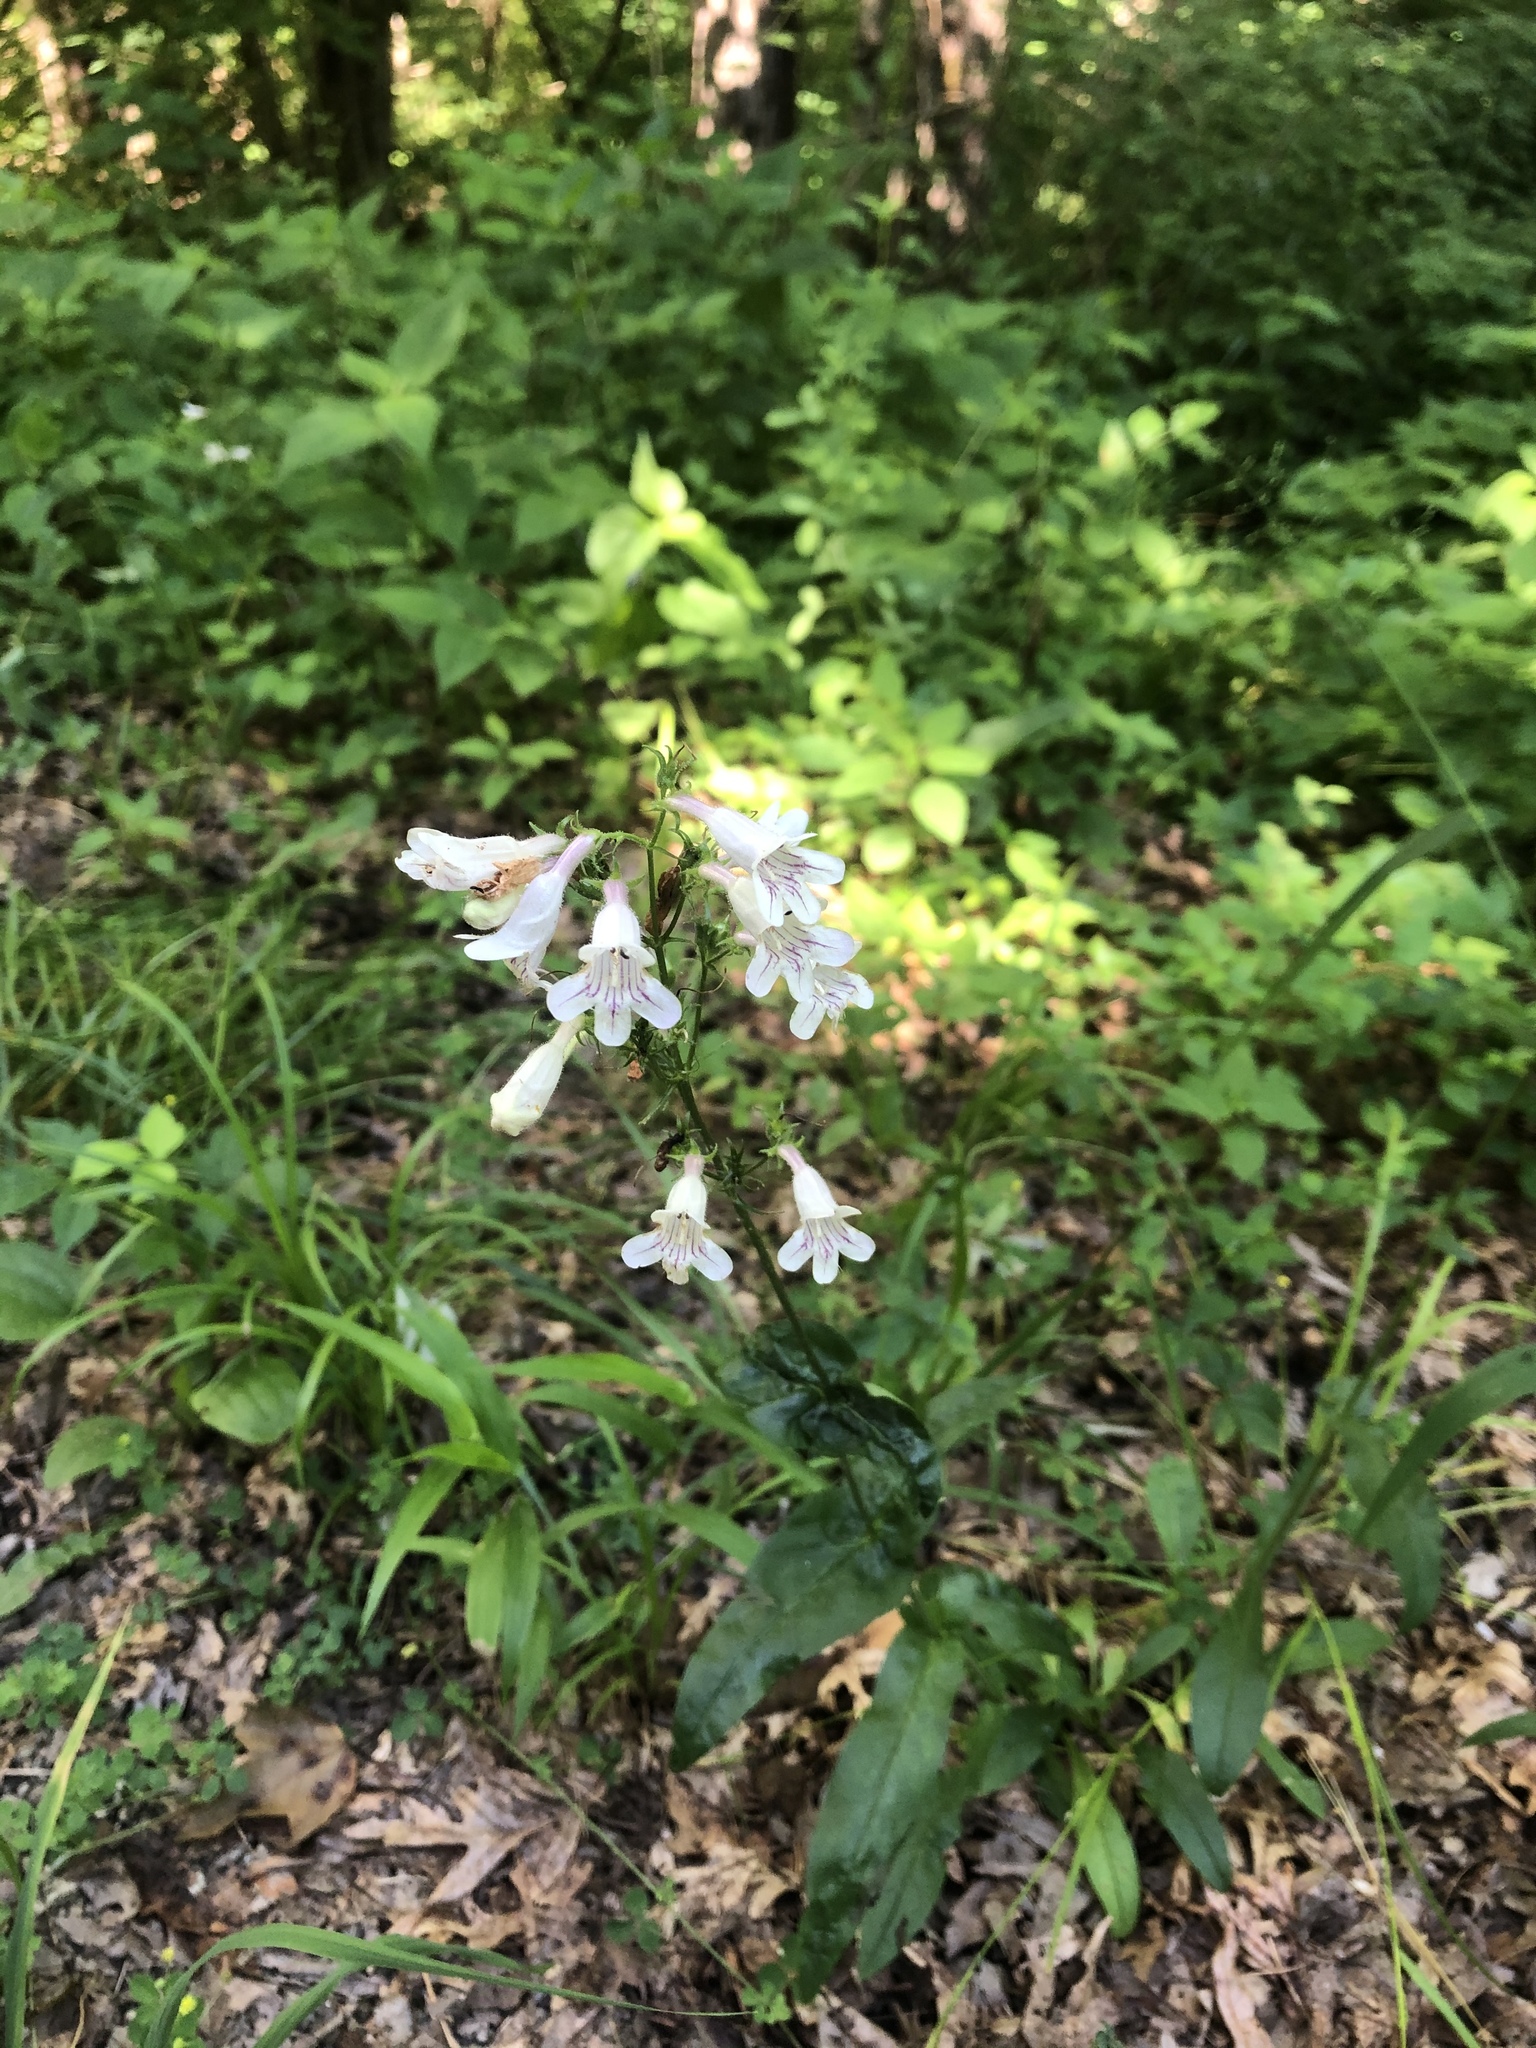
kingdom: Plantae
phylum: Tracheophyta
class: Magnoliopsida
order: Lamiales
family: Plantaginaceae
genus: Penstemon
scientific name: Penstemon digitalis
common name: Foxglove beardtongue
